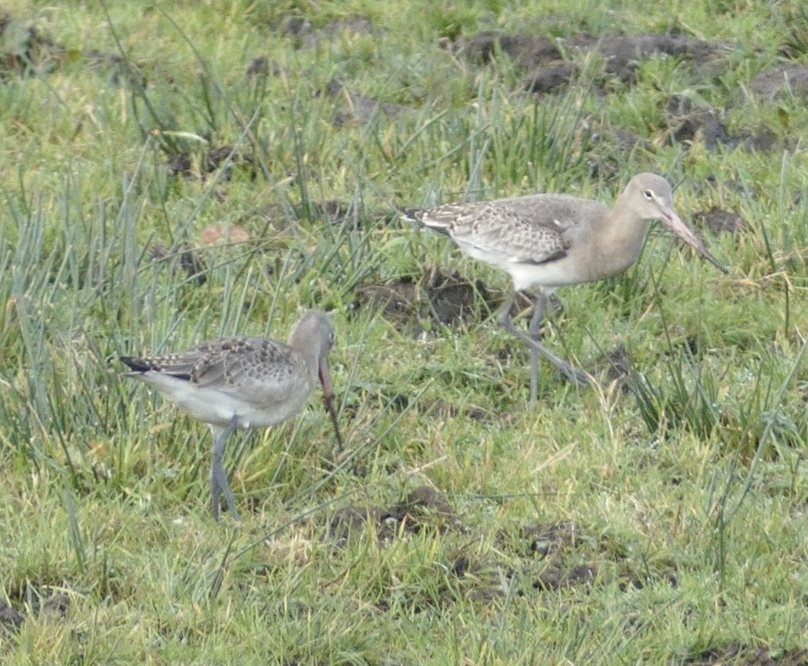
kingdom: Animalia
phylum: Chordata
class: Aves
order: Charadriiformes
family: Scolopacidae
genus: Limosa
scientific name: Limosa limosa
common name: Black-tailed godwit
